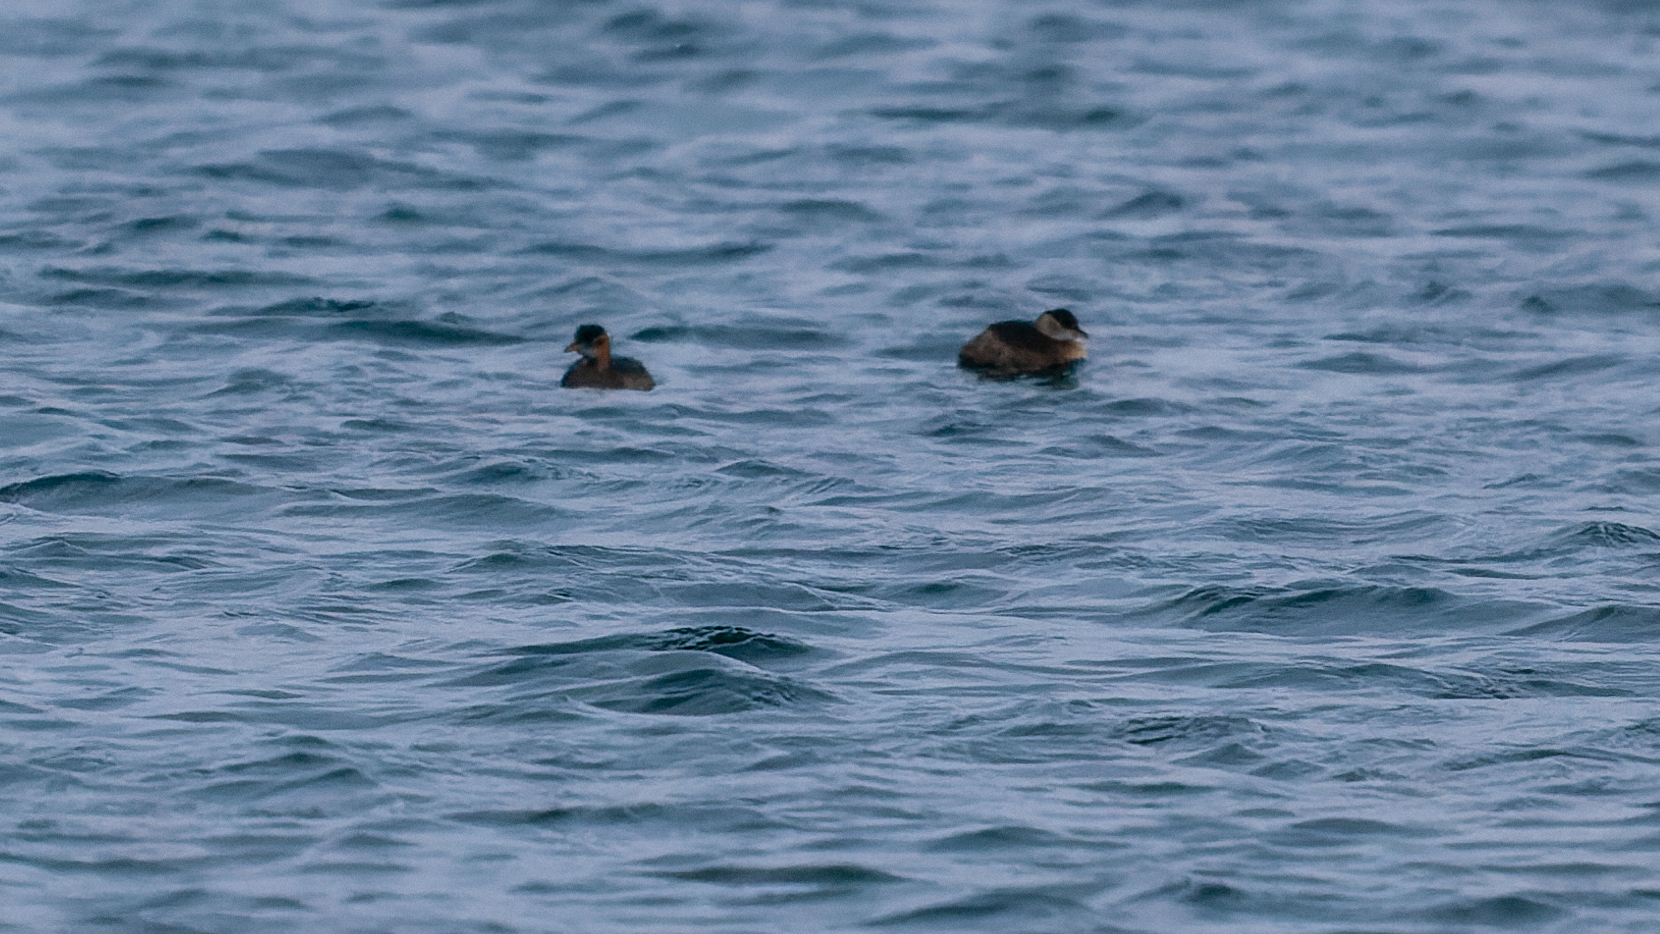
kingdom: Animalia
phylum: Chordata
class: Aves
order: Podicipediformes
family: Podicipedidae
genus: Tachybaptus
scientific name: Tachybaptus ruficollis
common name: Little grebe
